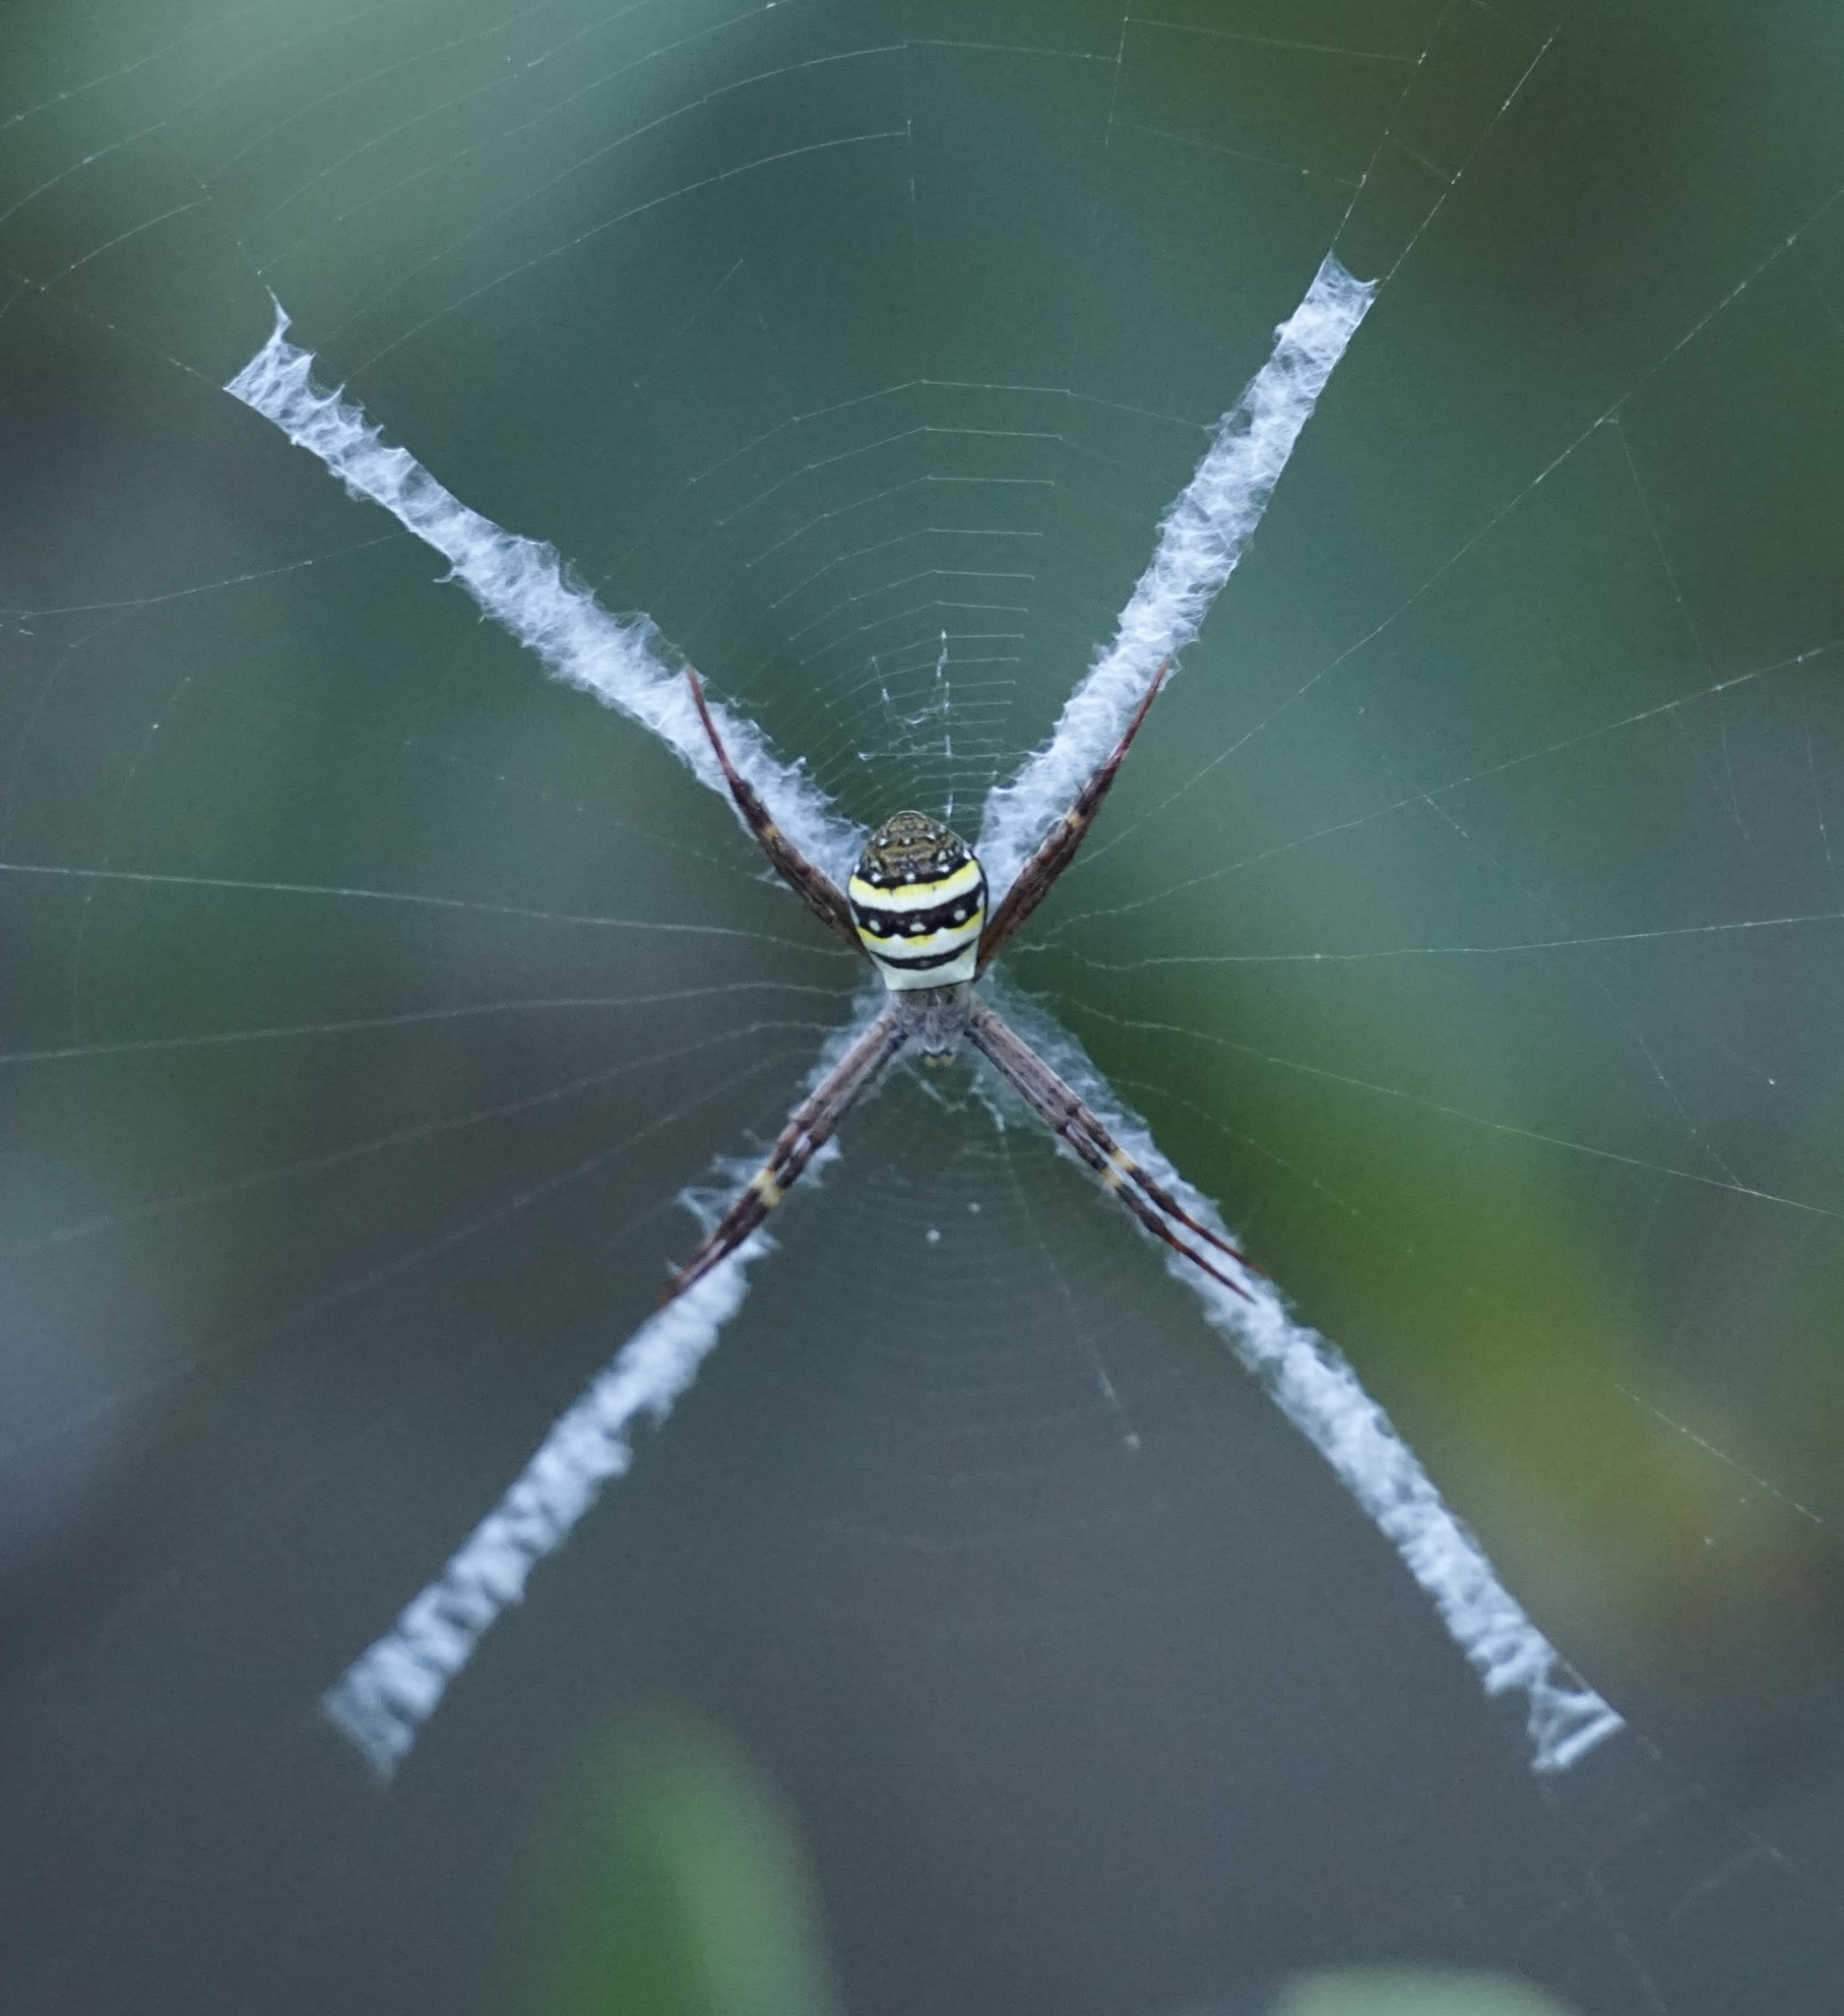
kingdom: Animalia
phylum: Arthropoda
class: Arachnida
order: Araneae
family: Araneidae
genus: Argiope
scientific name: Argiope keyserlingi
